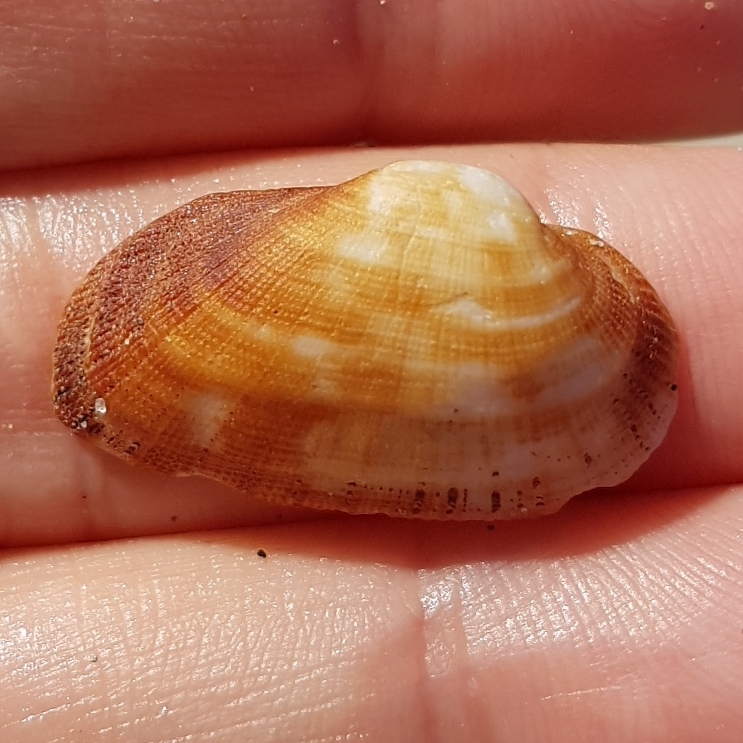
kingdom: Animalia
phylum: Mollusca
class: Bivalvia
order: Arcida
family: Arcidae
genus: Barbatia
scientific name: Barbatia barbata
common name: Bearded ark
